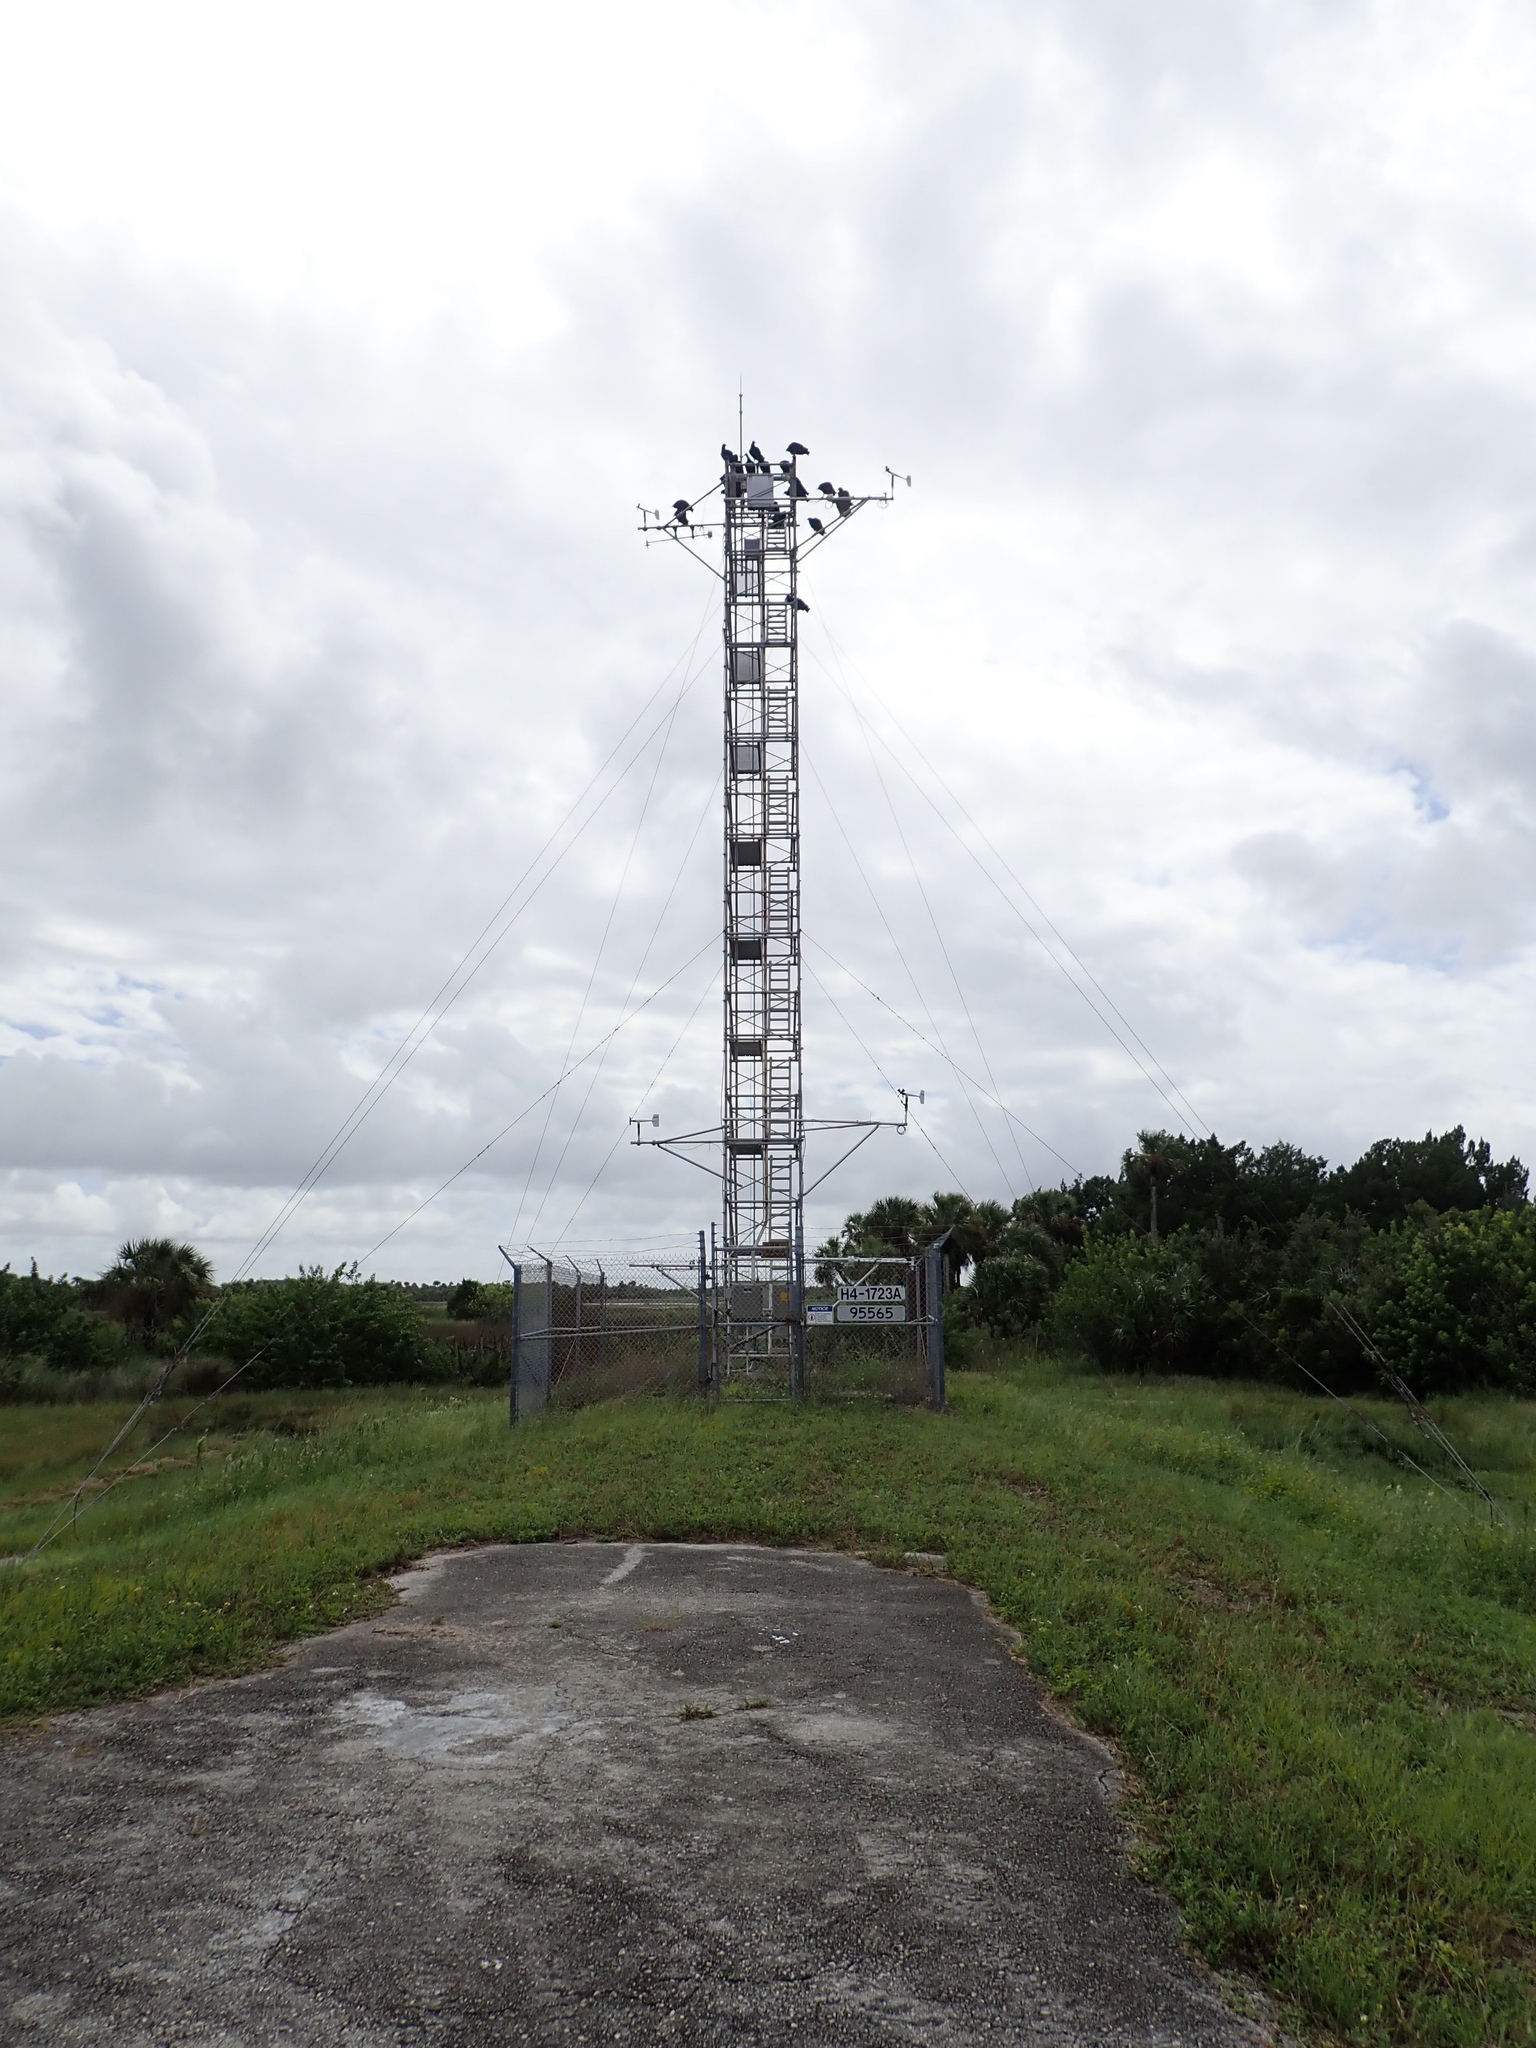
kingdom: Animalia
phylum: Chordata
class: Aves
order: Accipitriformes
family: Cathartidae
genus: Coragyps
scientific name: Coragyps atratus
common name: Black vulture
